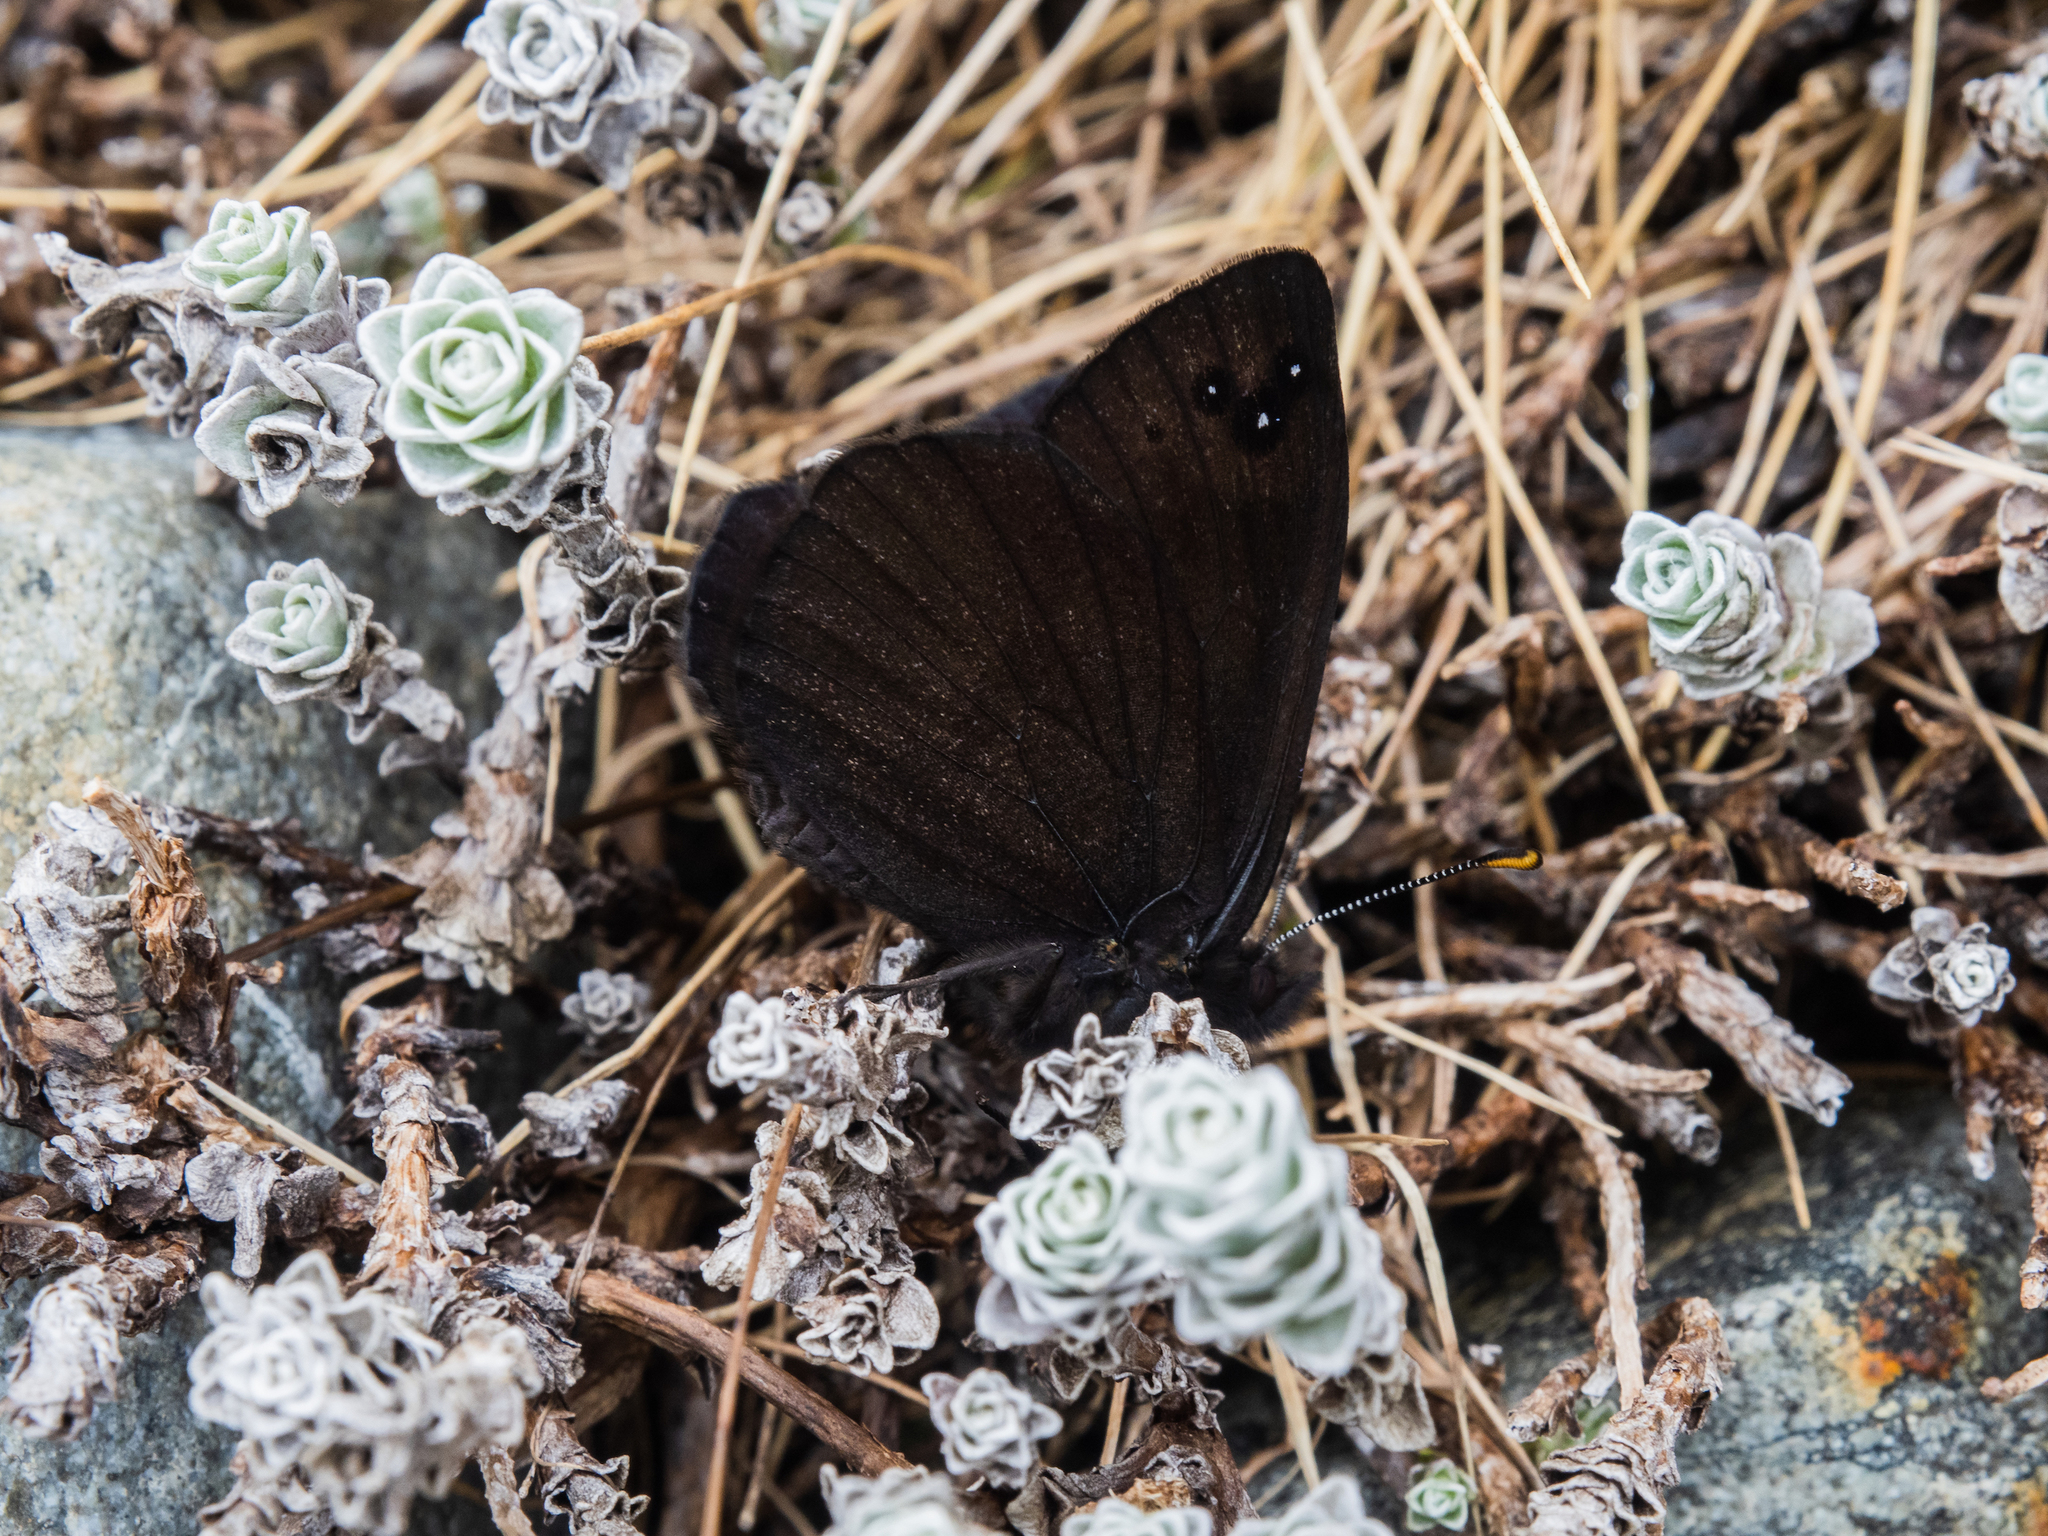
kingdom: Animalia
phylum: Arthropoda
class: Insecta
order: Lepidoptera
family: Nymphalidae
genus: Erebia
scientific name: Erebia Percnodaimon merula
